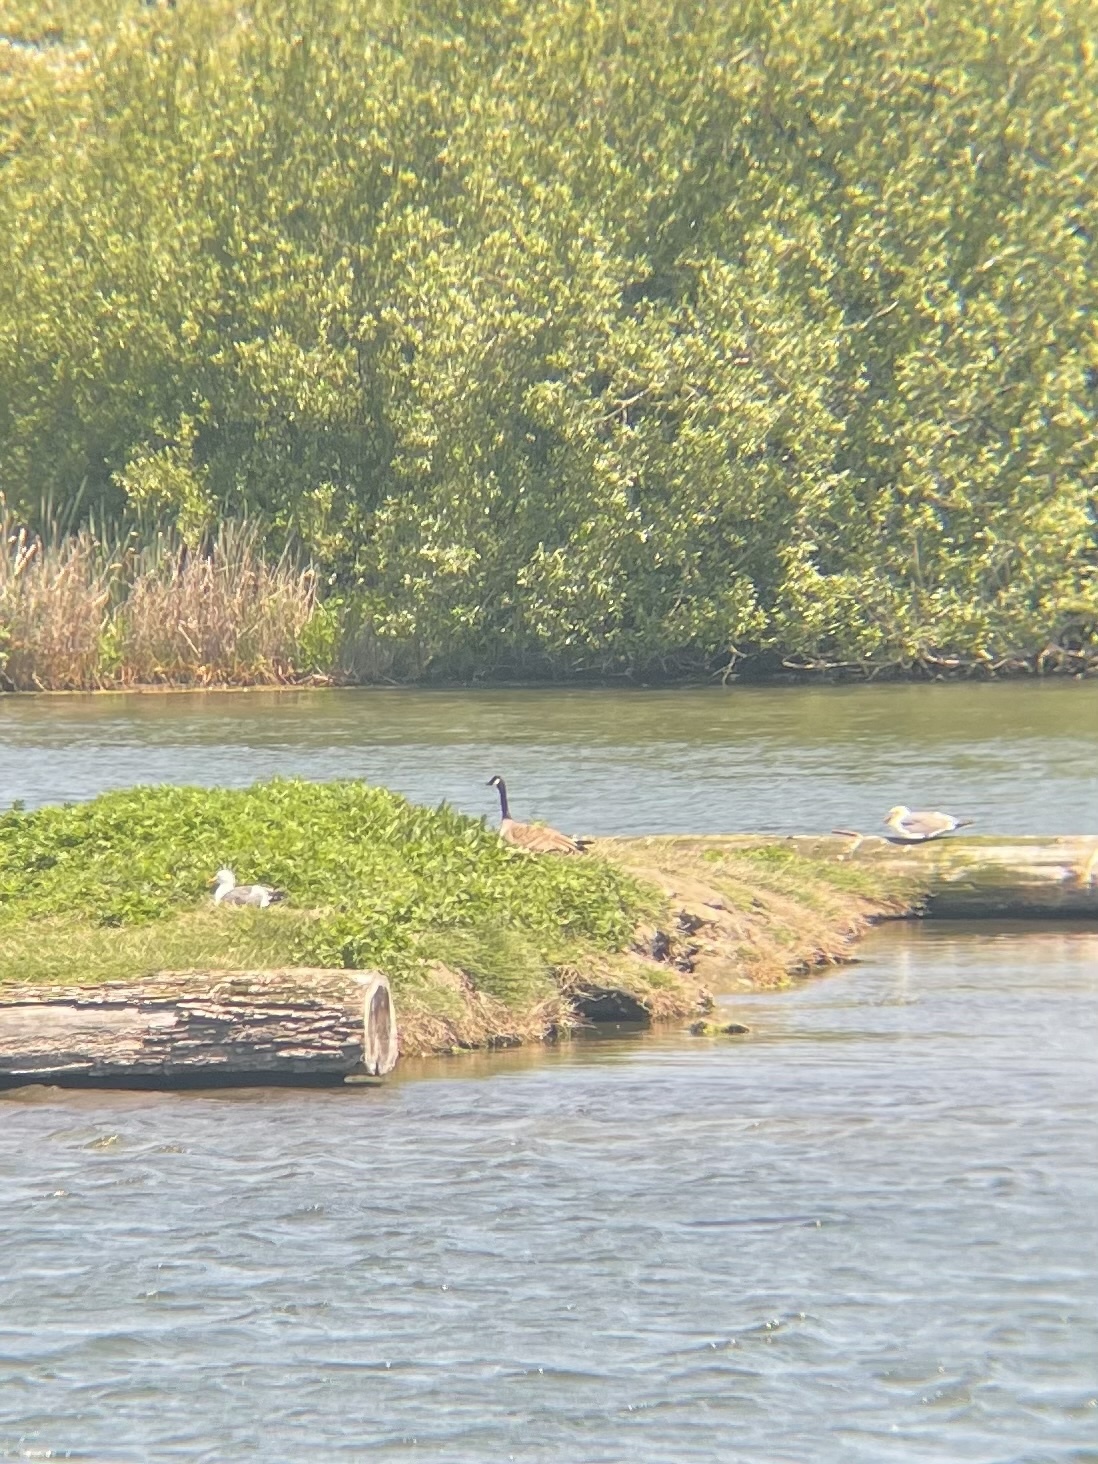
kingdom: Animalia
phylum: Chordata
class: Aves
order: Anseriformes
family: Anatidae
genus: Branta
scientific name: Branta canadensis
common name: Canada goose
